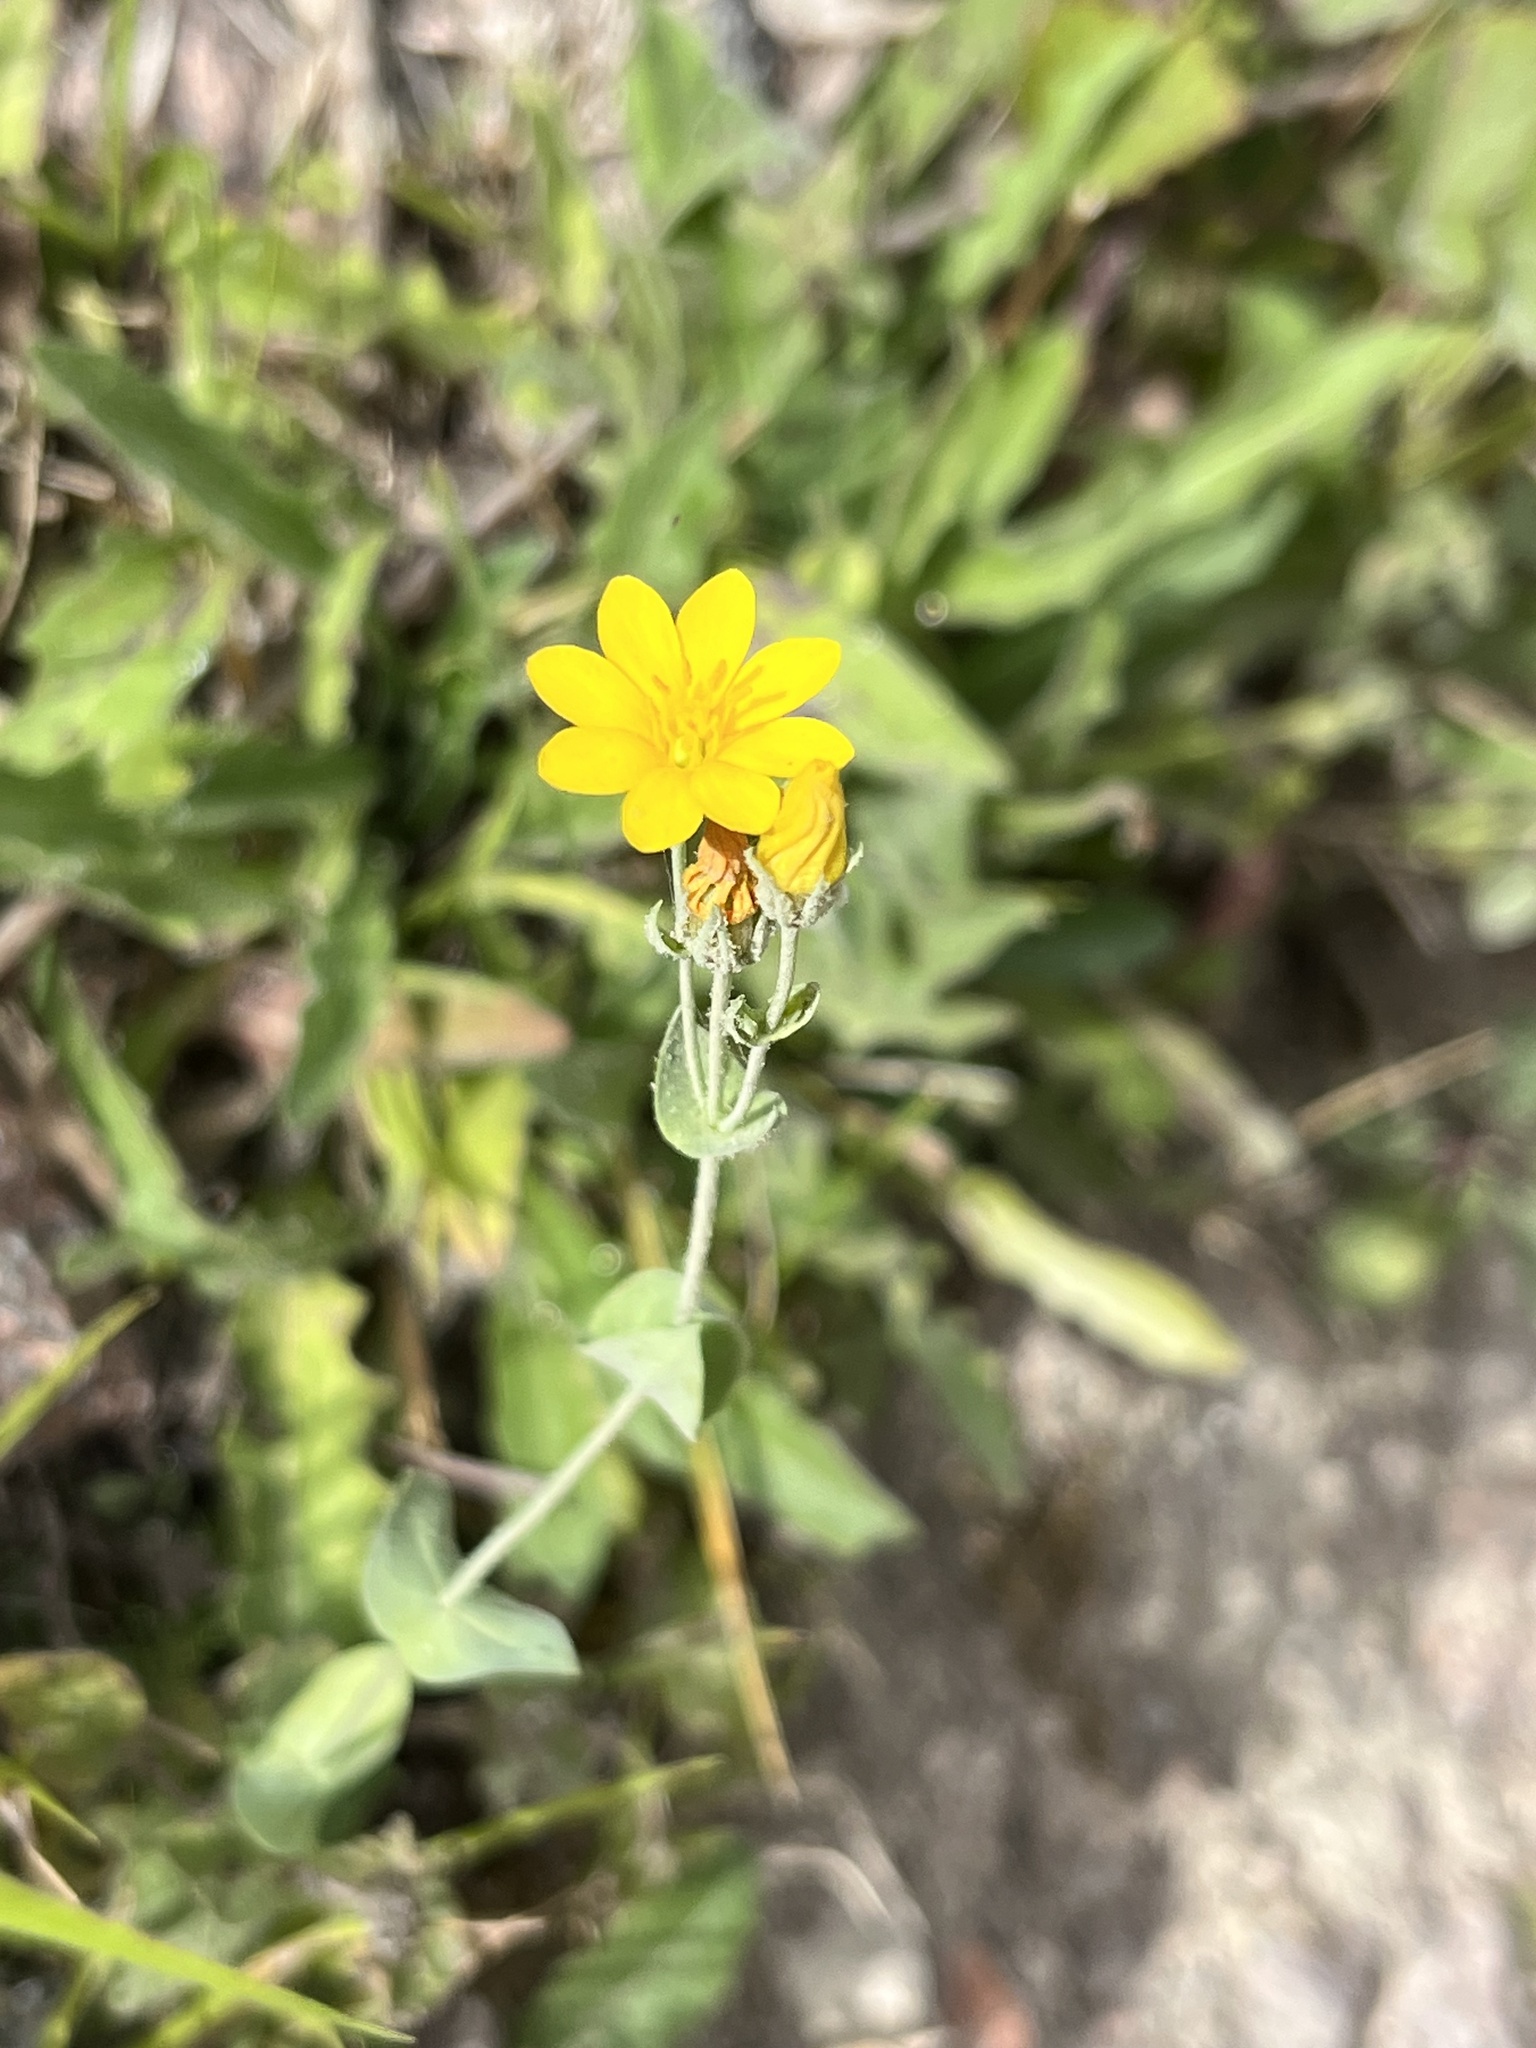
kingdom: Plantae
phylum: Tracheophyta
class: Magnoliopsida
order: Gentianales
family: Gentianaceae
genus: Blackstonia
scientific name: Blackstonia perfoliata
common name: Yellow-wort
